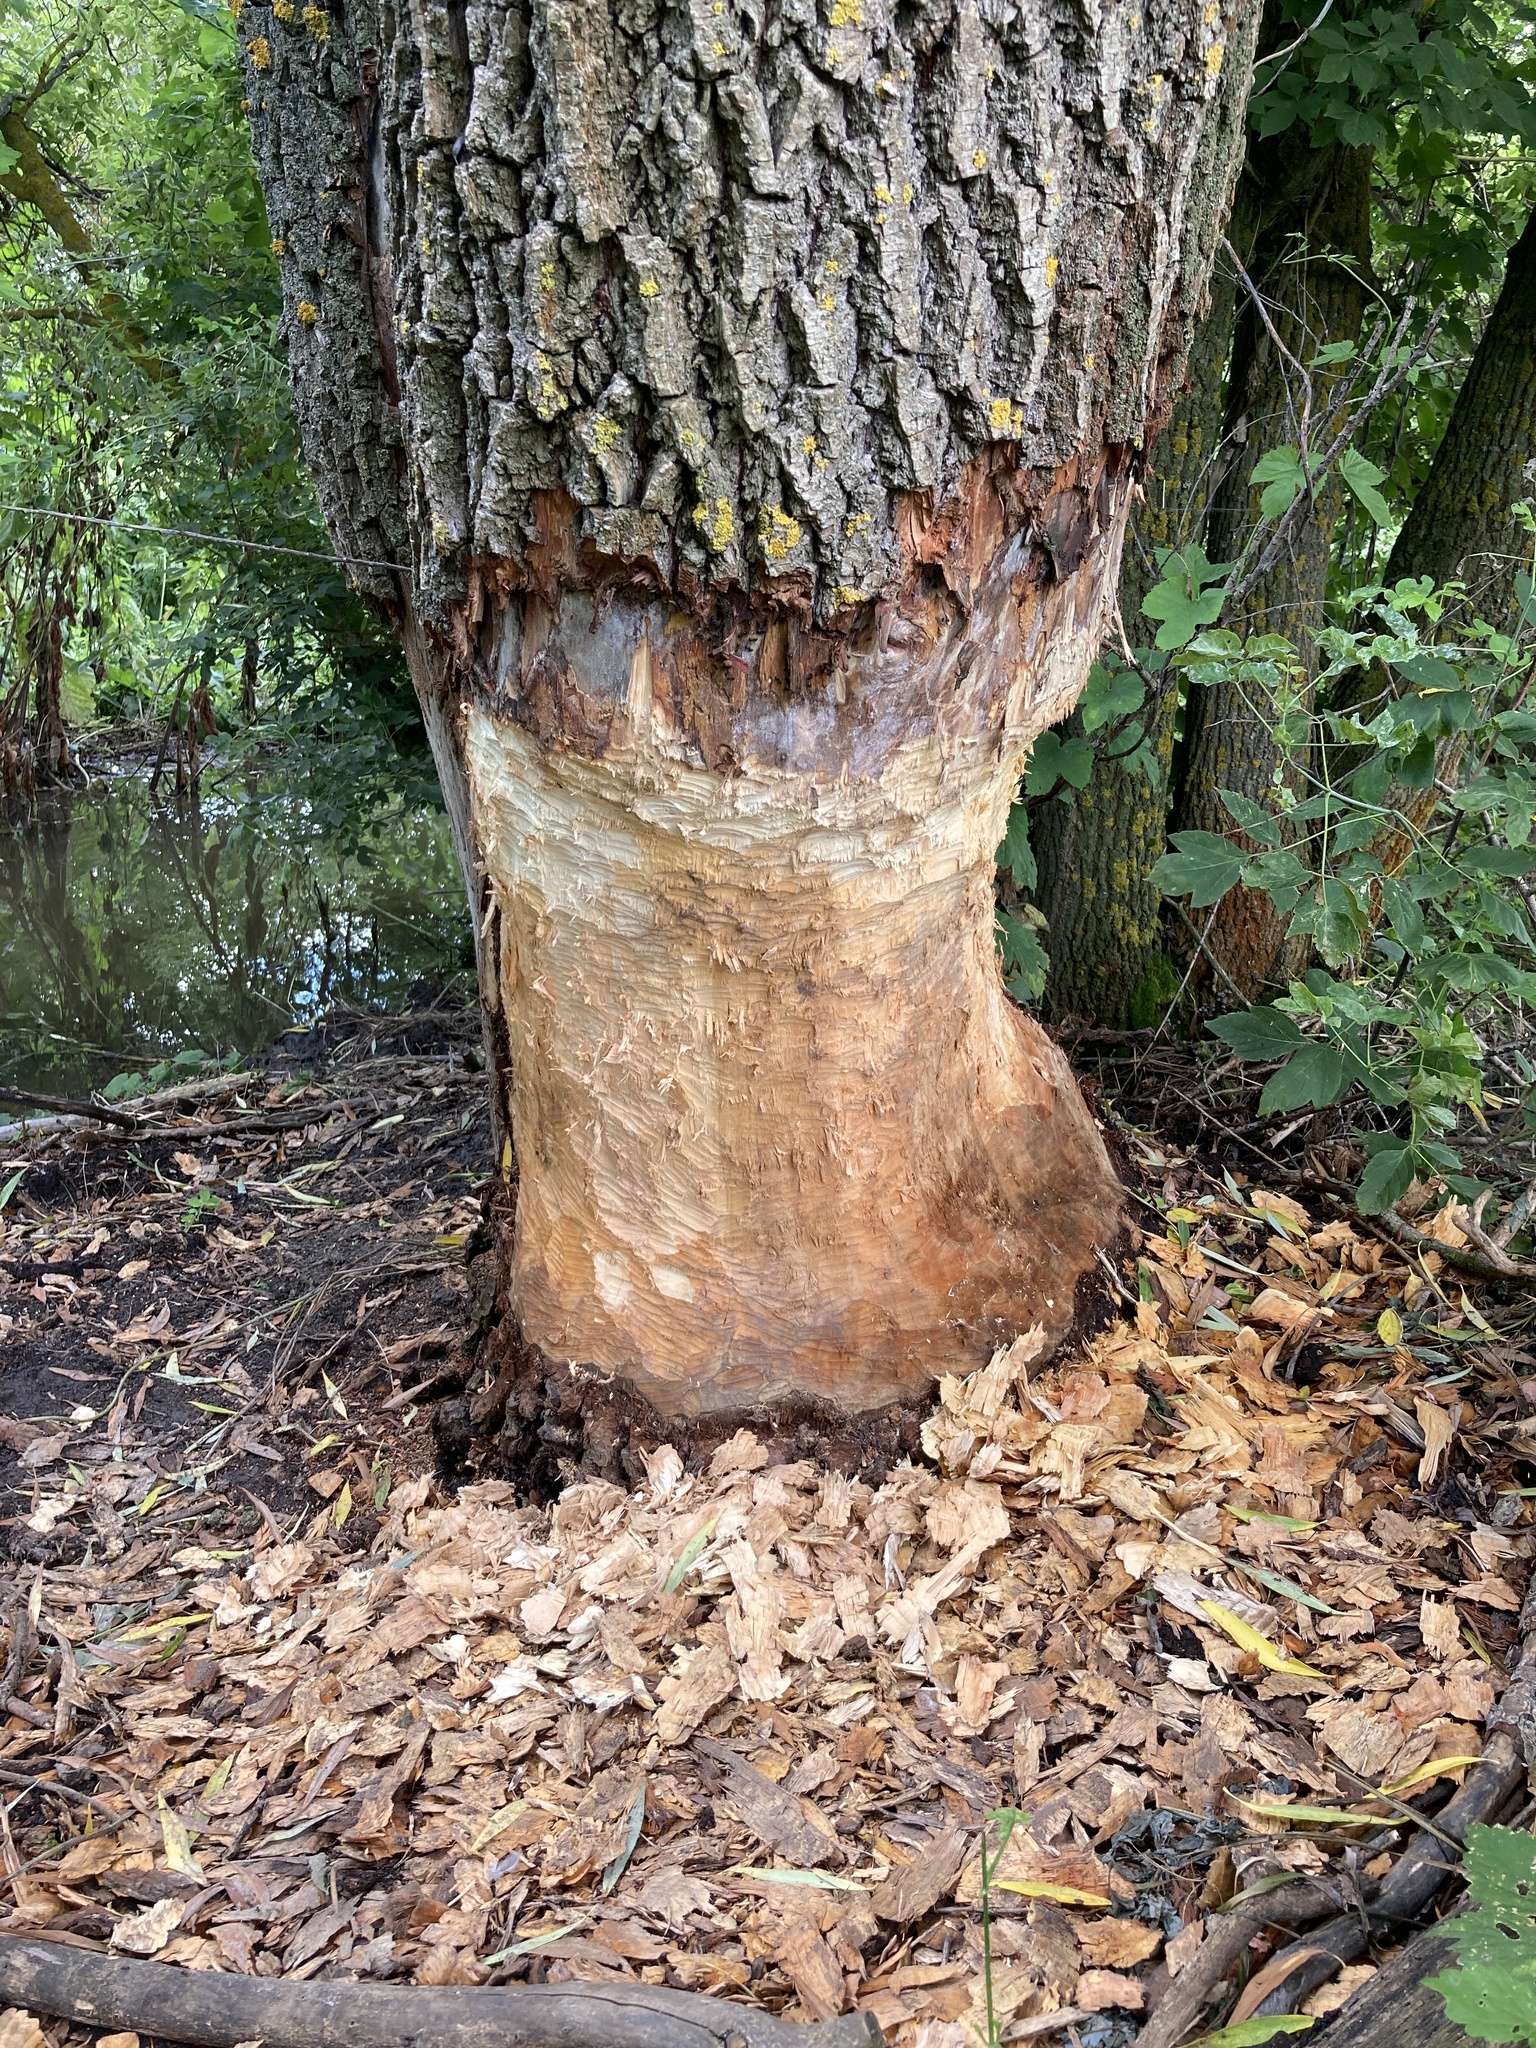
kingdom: Animalia
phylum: Chordata
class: Mammalia
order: Rodentia
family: Castoridae
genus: Castor
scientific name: Castor fiber
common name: Eurasian beaver
